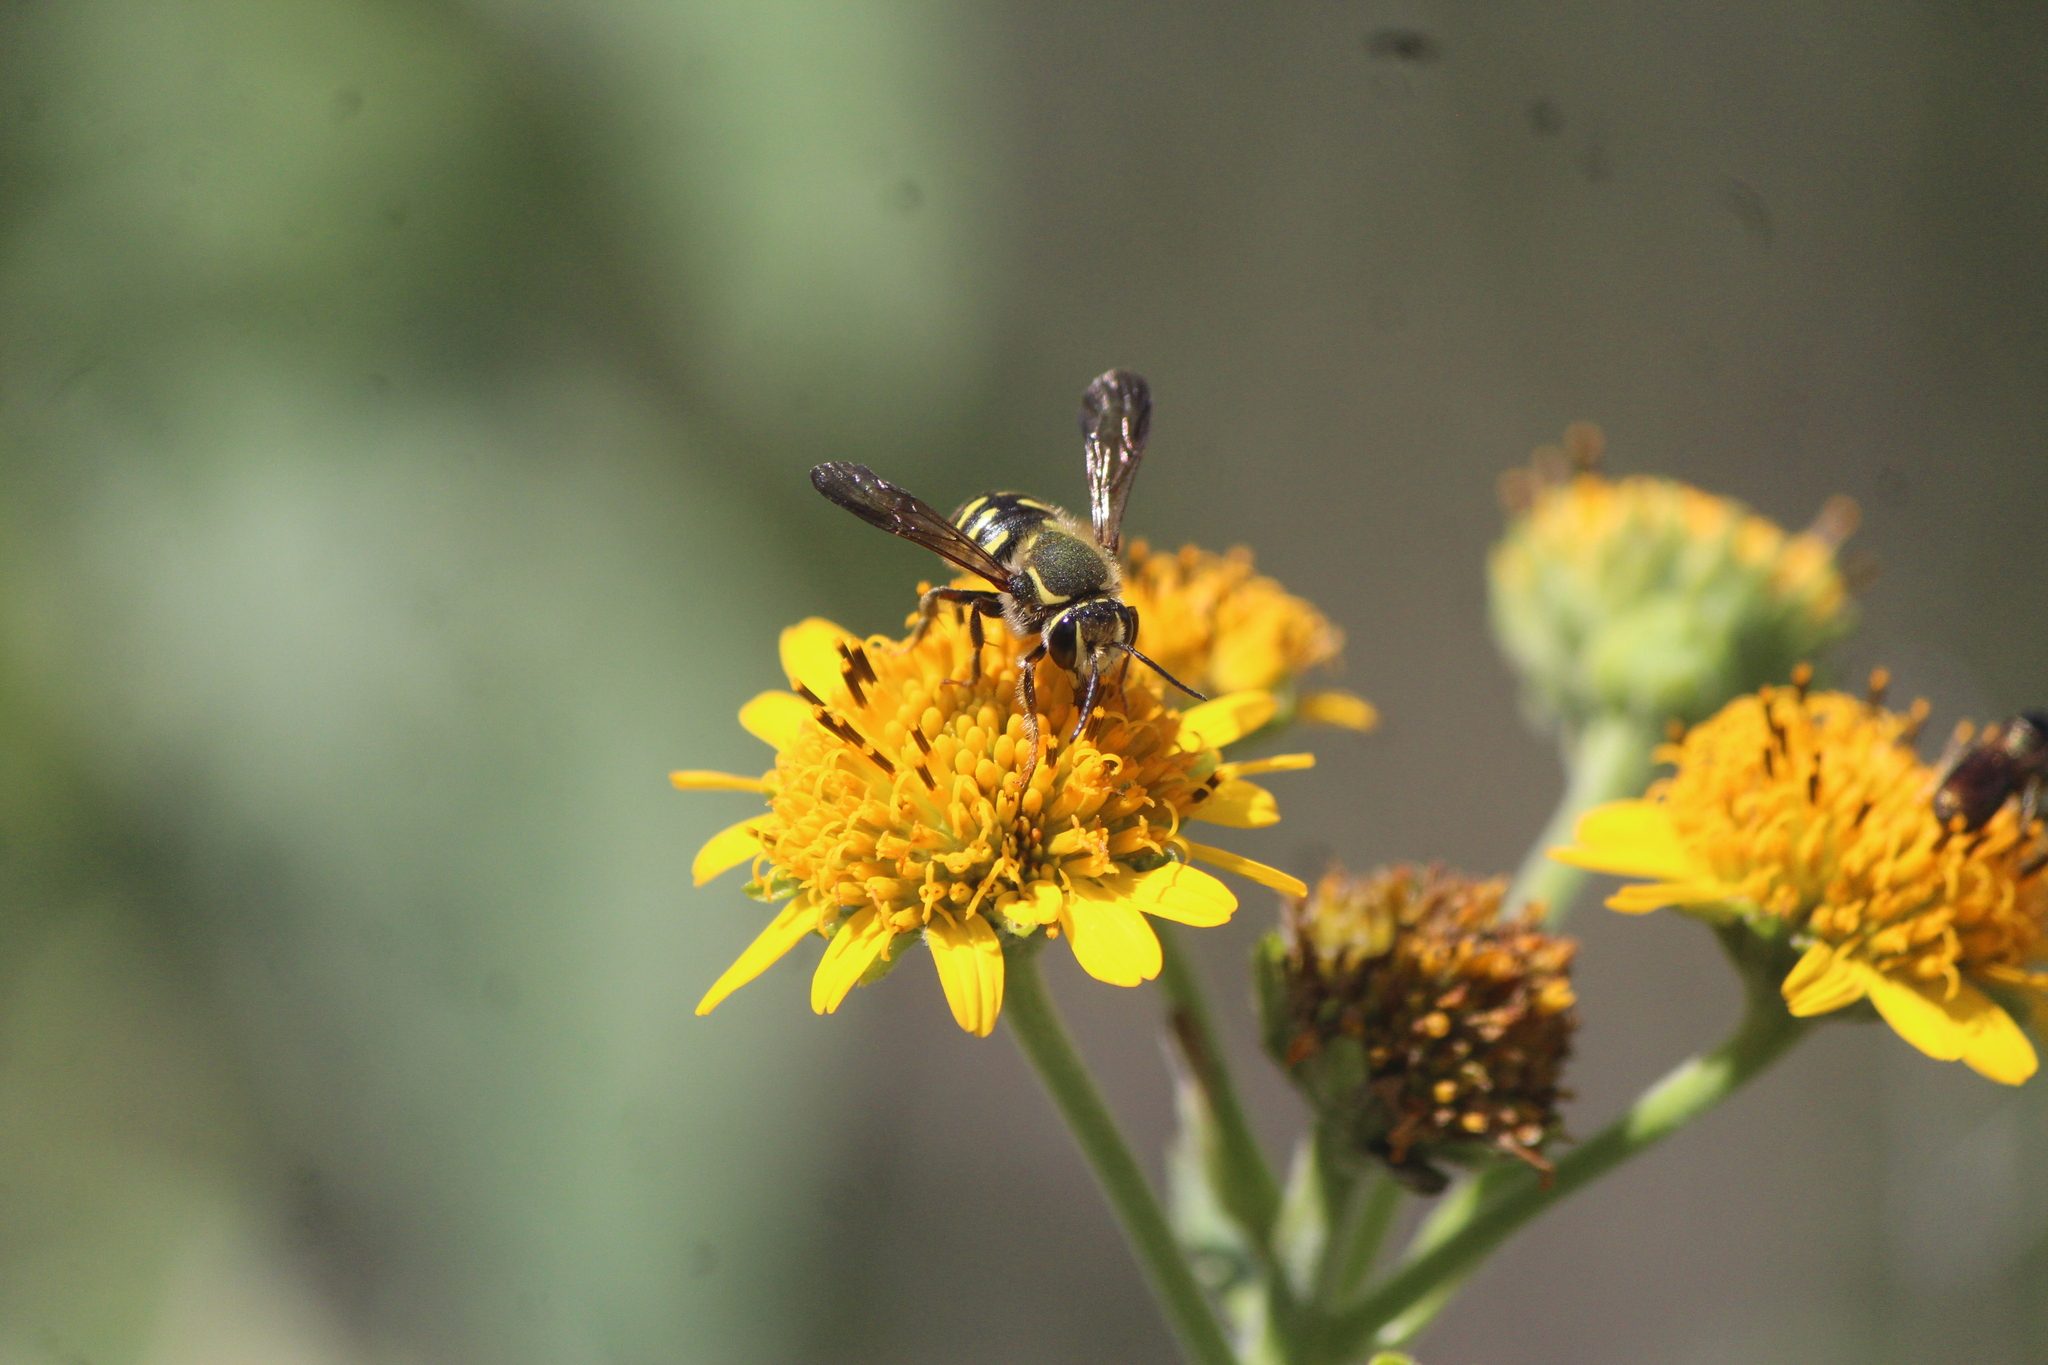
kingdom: Animalia
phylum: Arthropoda
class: Insecta
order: Hymenoptera
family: Megachilidae
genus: Paranthidium
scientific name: Paranthidium gabbii
